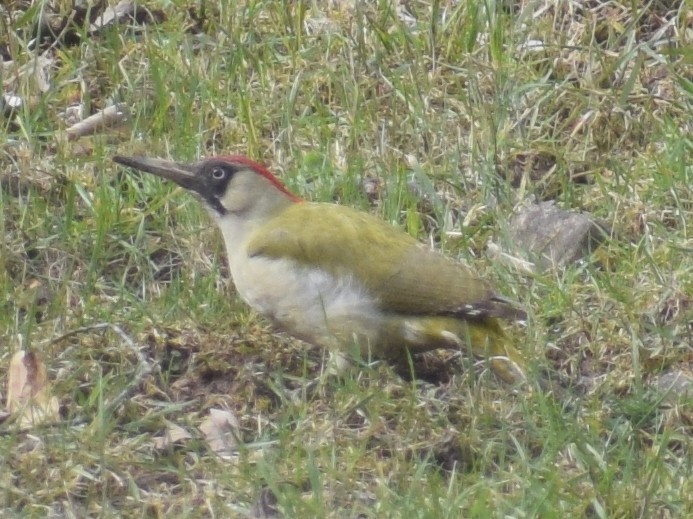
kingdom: Animalia
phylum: Chordata
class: Aves
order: Piciformes
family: Picidae
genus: Picus
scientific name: Picus viridis
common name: European green woodpecker
